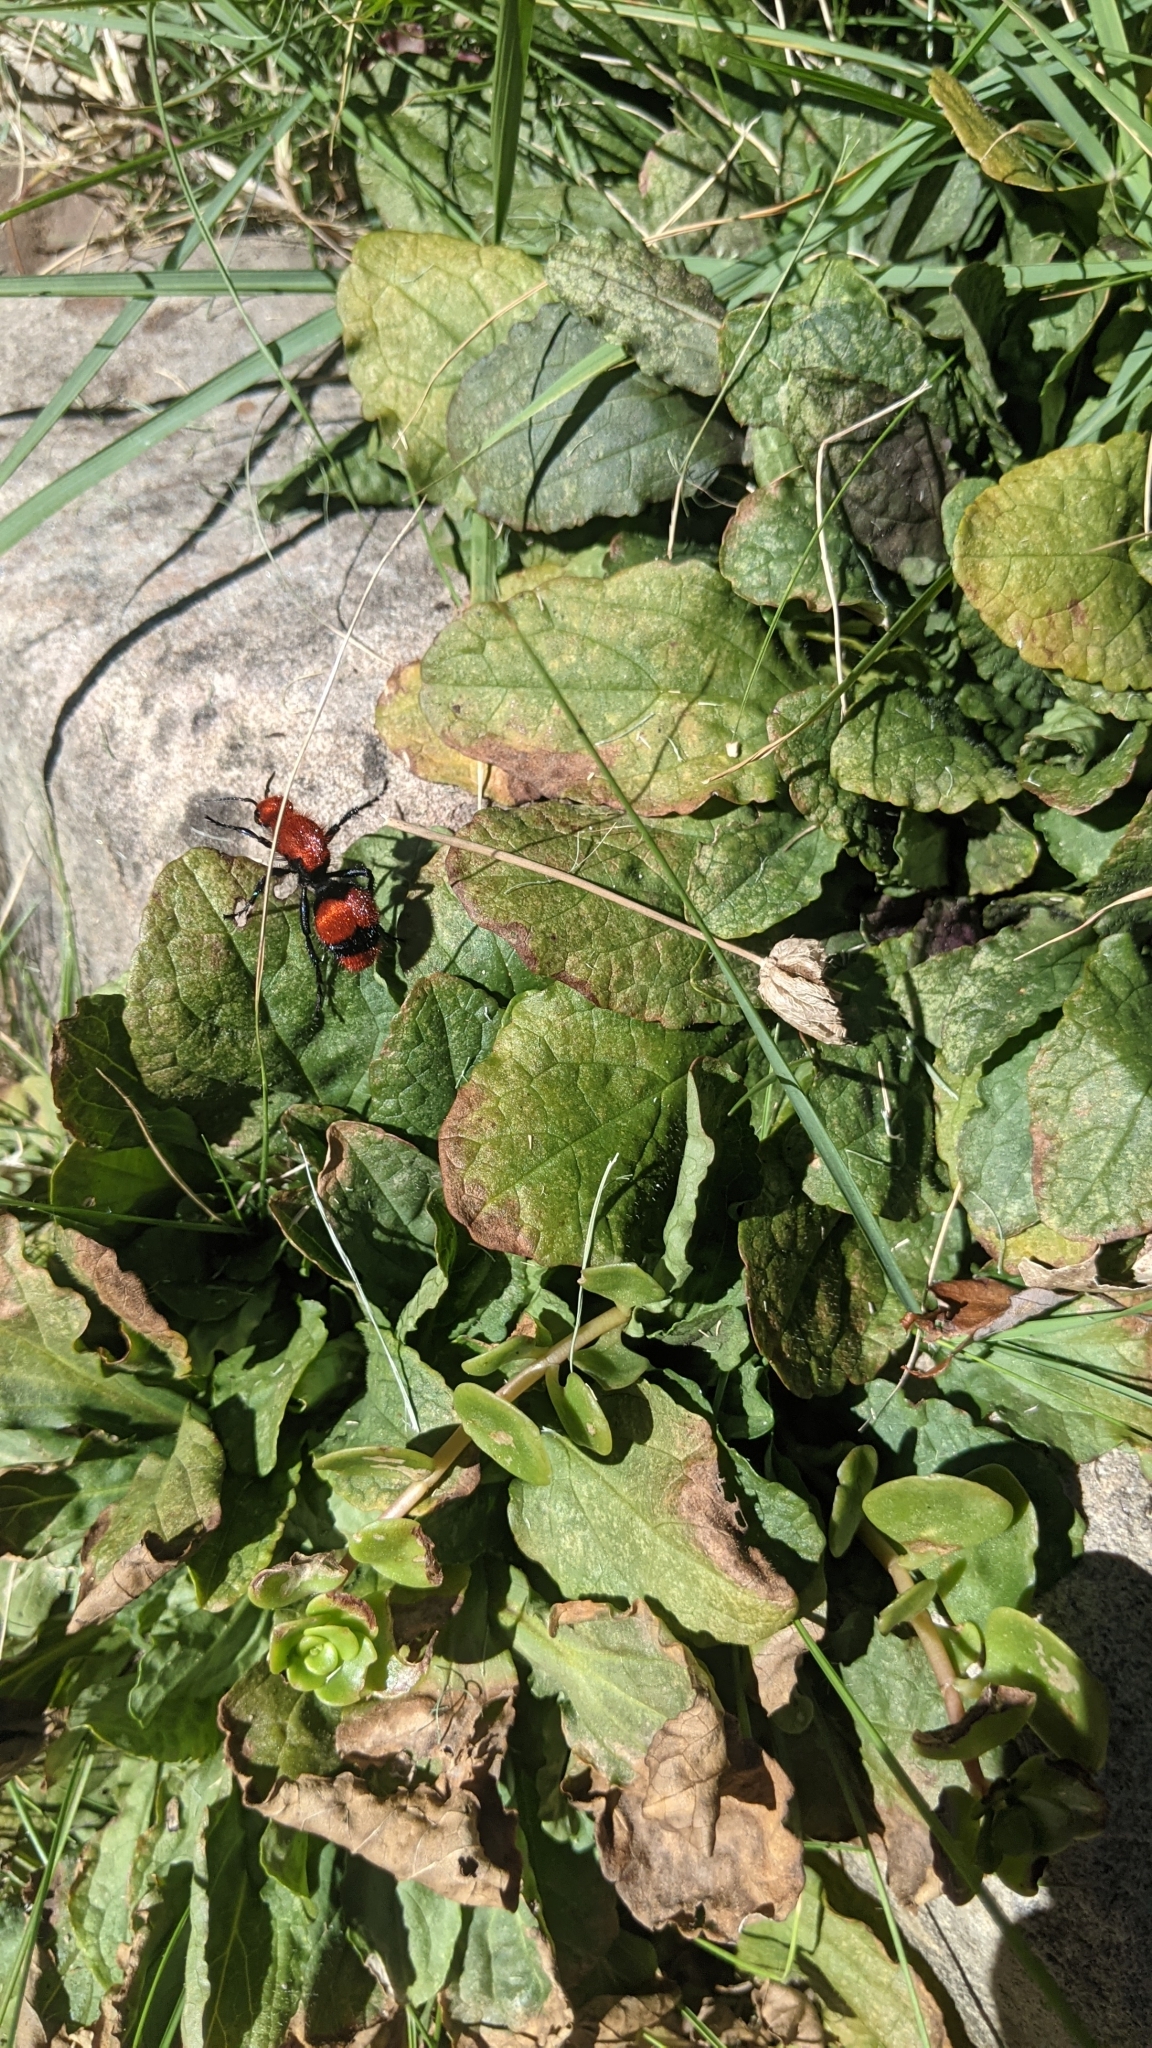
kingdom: Animalia
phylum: Arthropoda
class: Insecta
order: Hymenoptera
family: Mutillidae
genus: Dasymutilla
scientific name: Dasymutilla occidentalis
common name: Common eastern velvet ant
